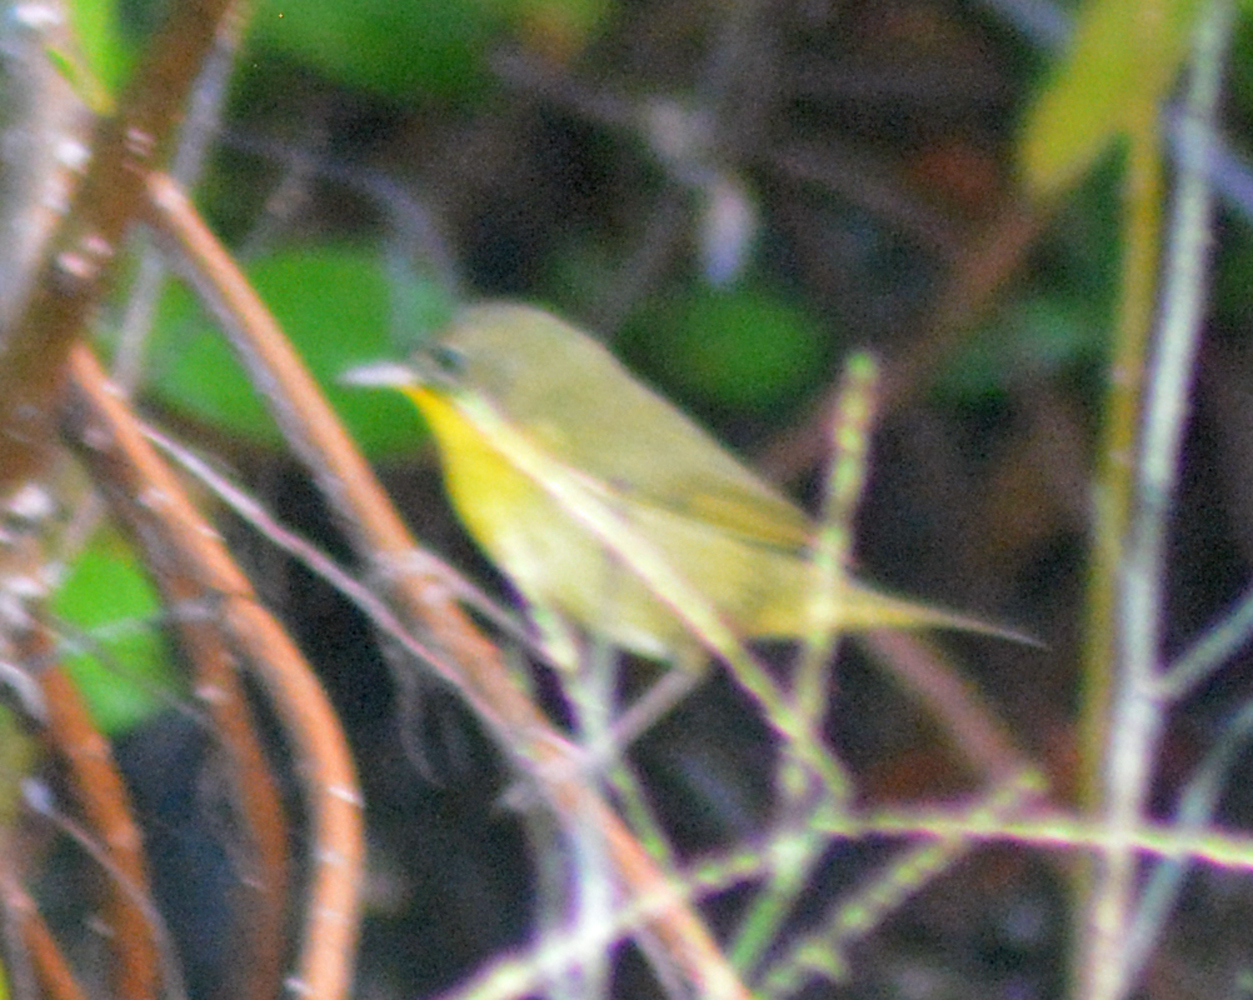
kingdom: Animalia
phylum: Chordata
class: Aves
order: Passeriformes
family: Parulidae
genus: Geothlypis
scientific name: Geothlypis trichas
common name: Common yellowthroat
